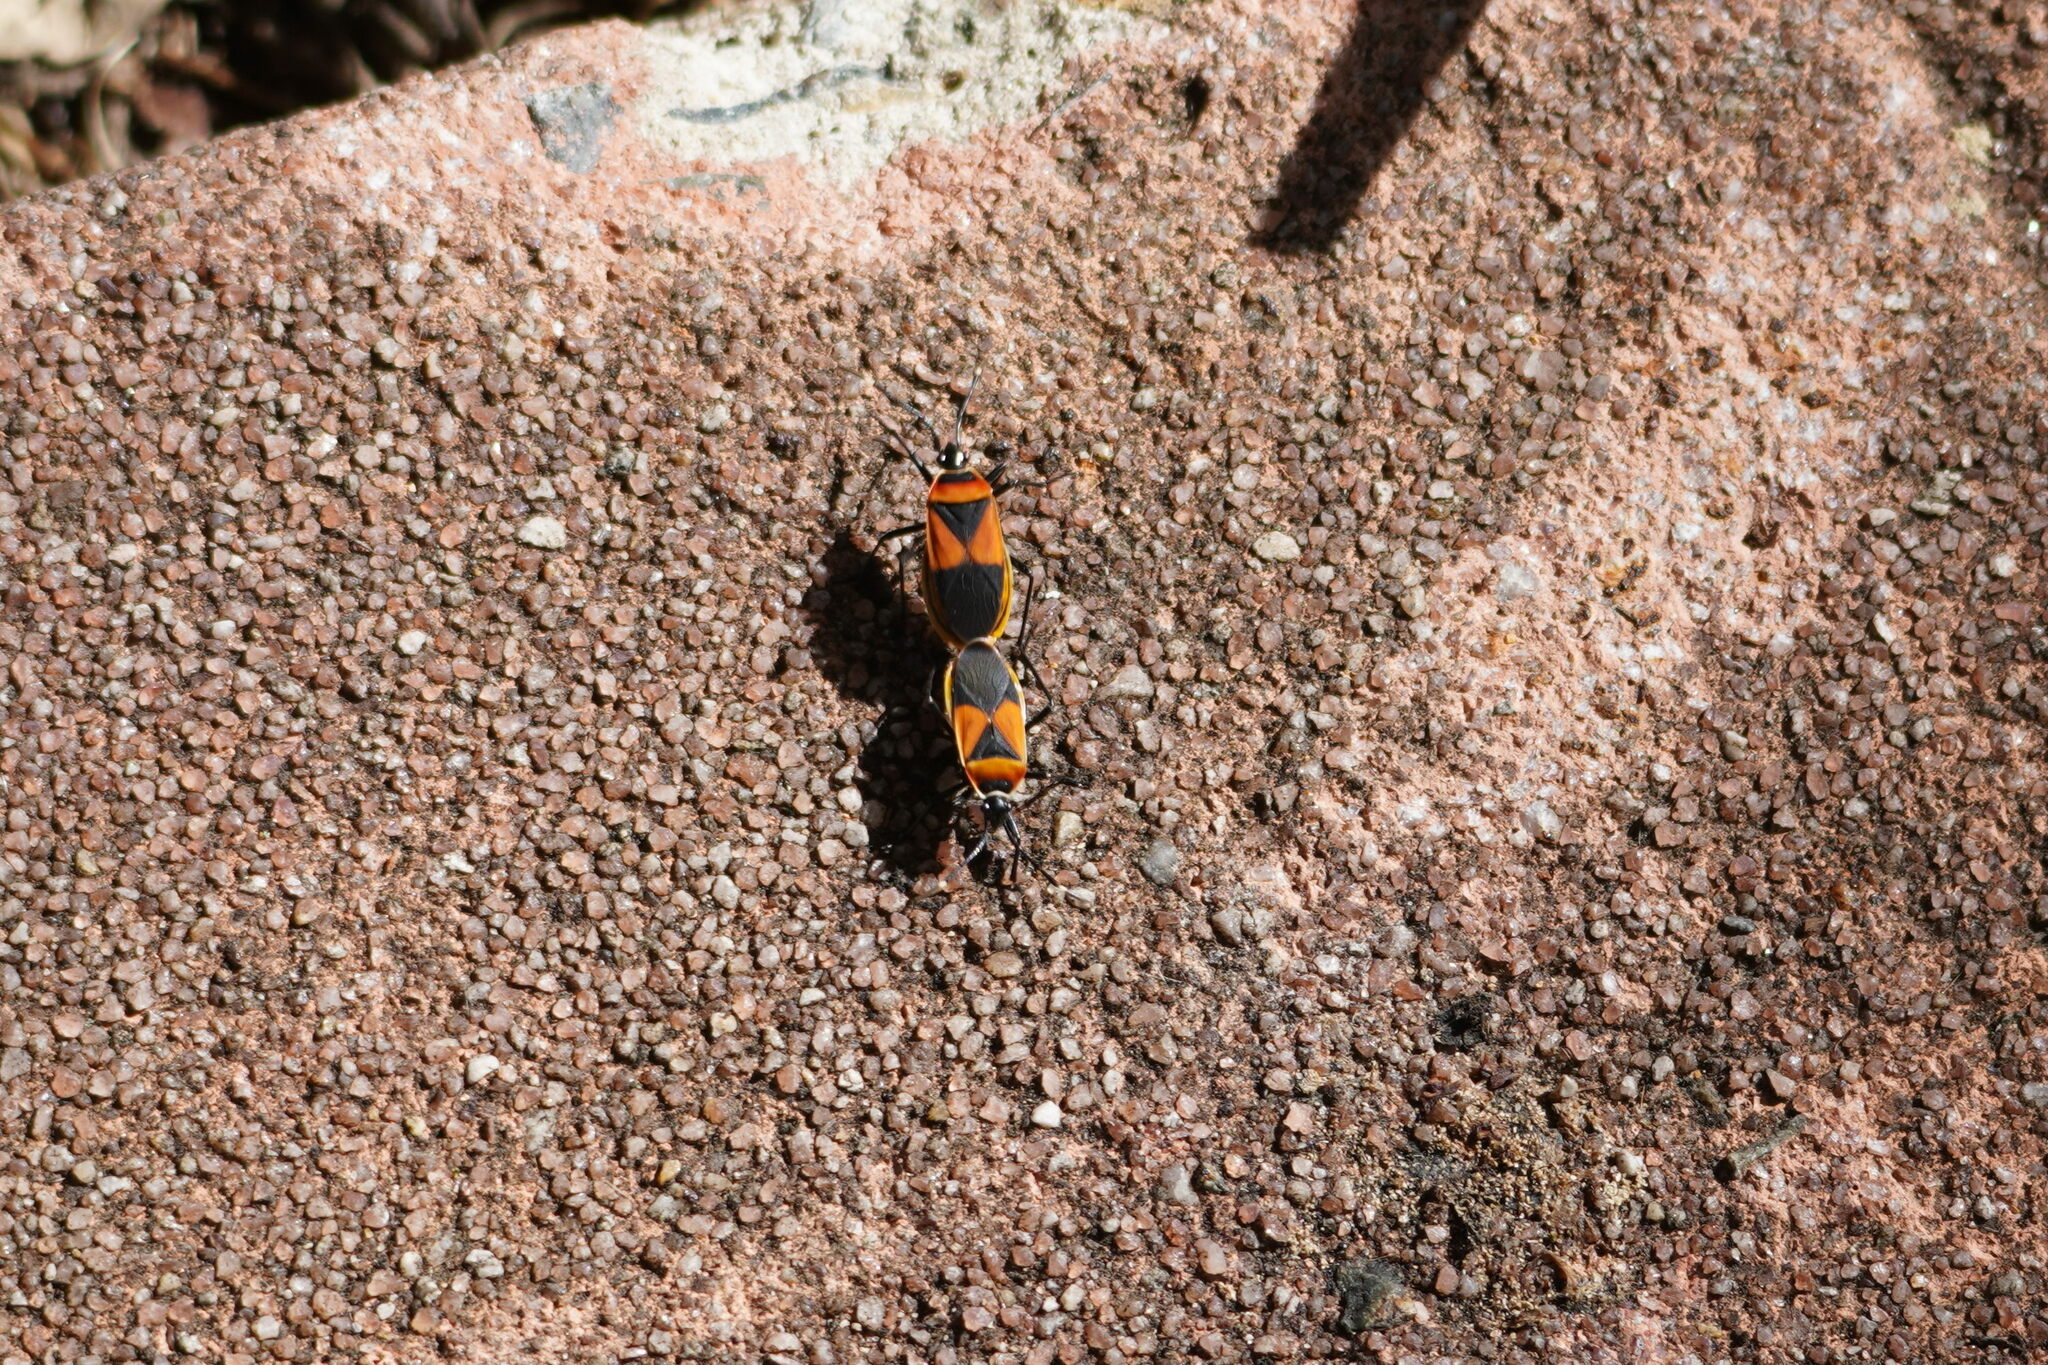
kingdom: Animalia
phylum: Arthropoda
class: Insecta
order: Hemiptera
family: Pyrrhocoridae
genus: Dindymus
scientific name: Dindymus
